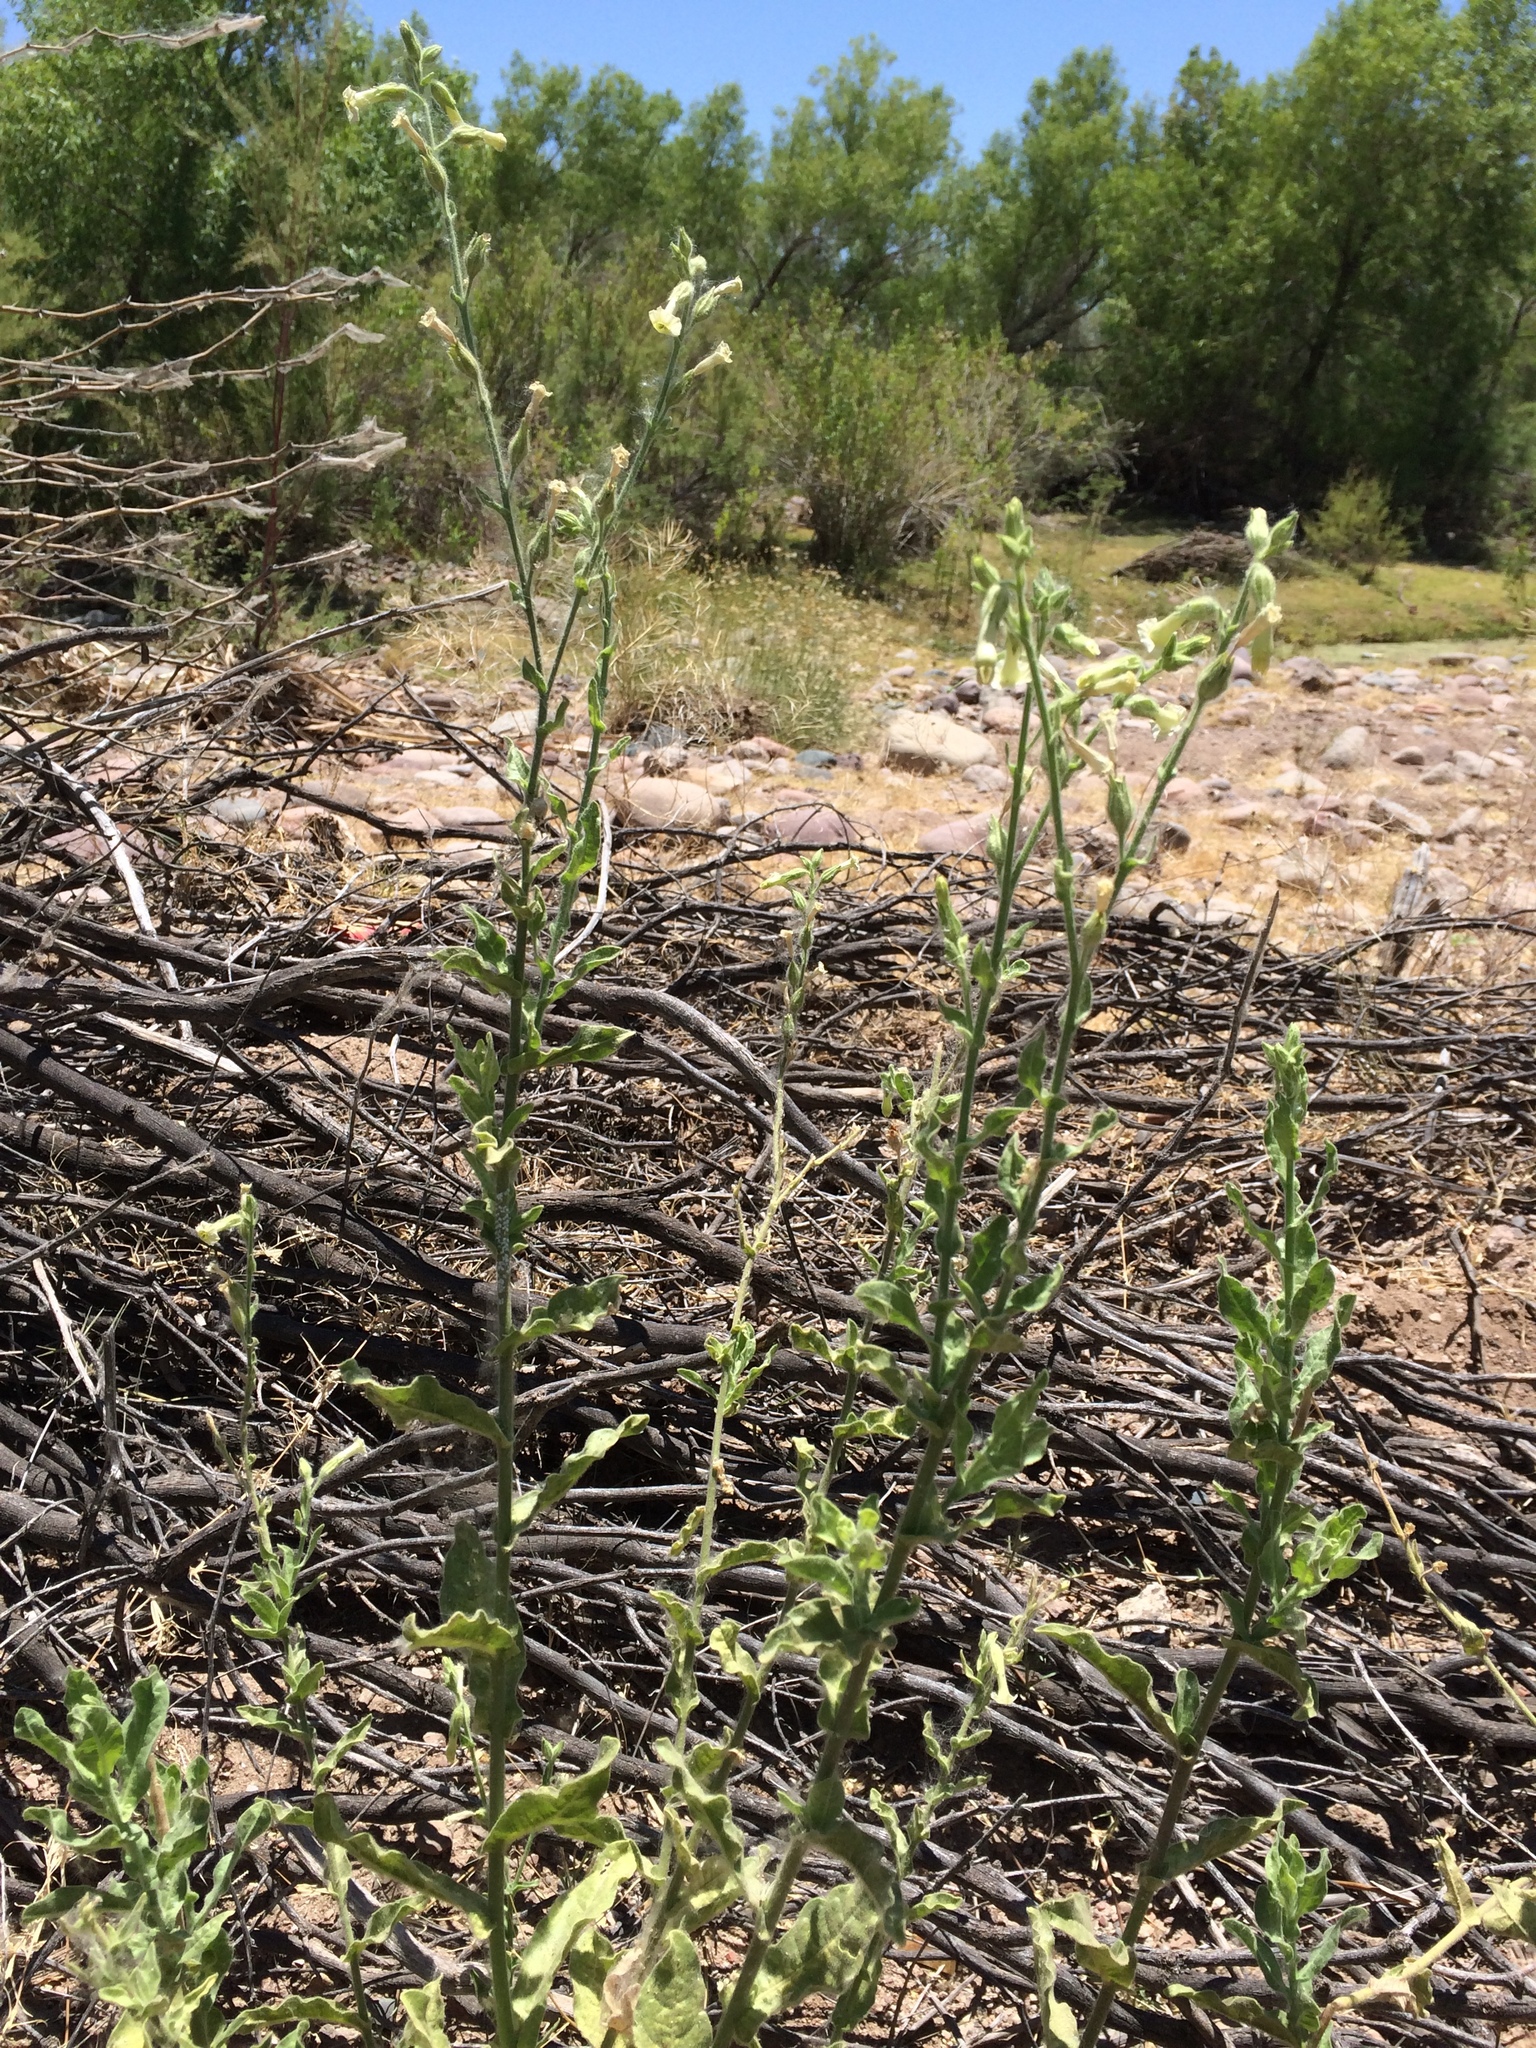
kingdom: Plantae
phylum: Tracheophyta
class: Magnoliopsida
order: Solanales
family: Solanaceae
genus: Nicotiana
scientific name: Nicotiana obtusifolia
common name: Desert tobacco
